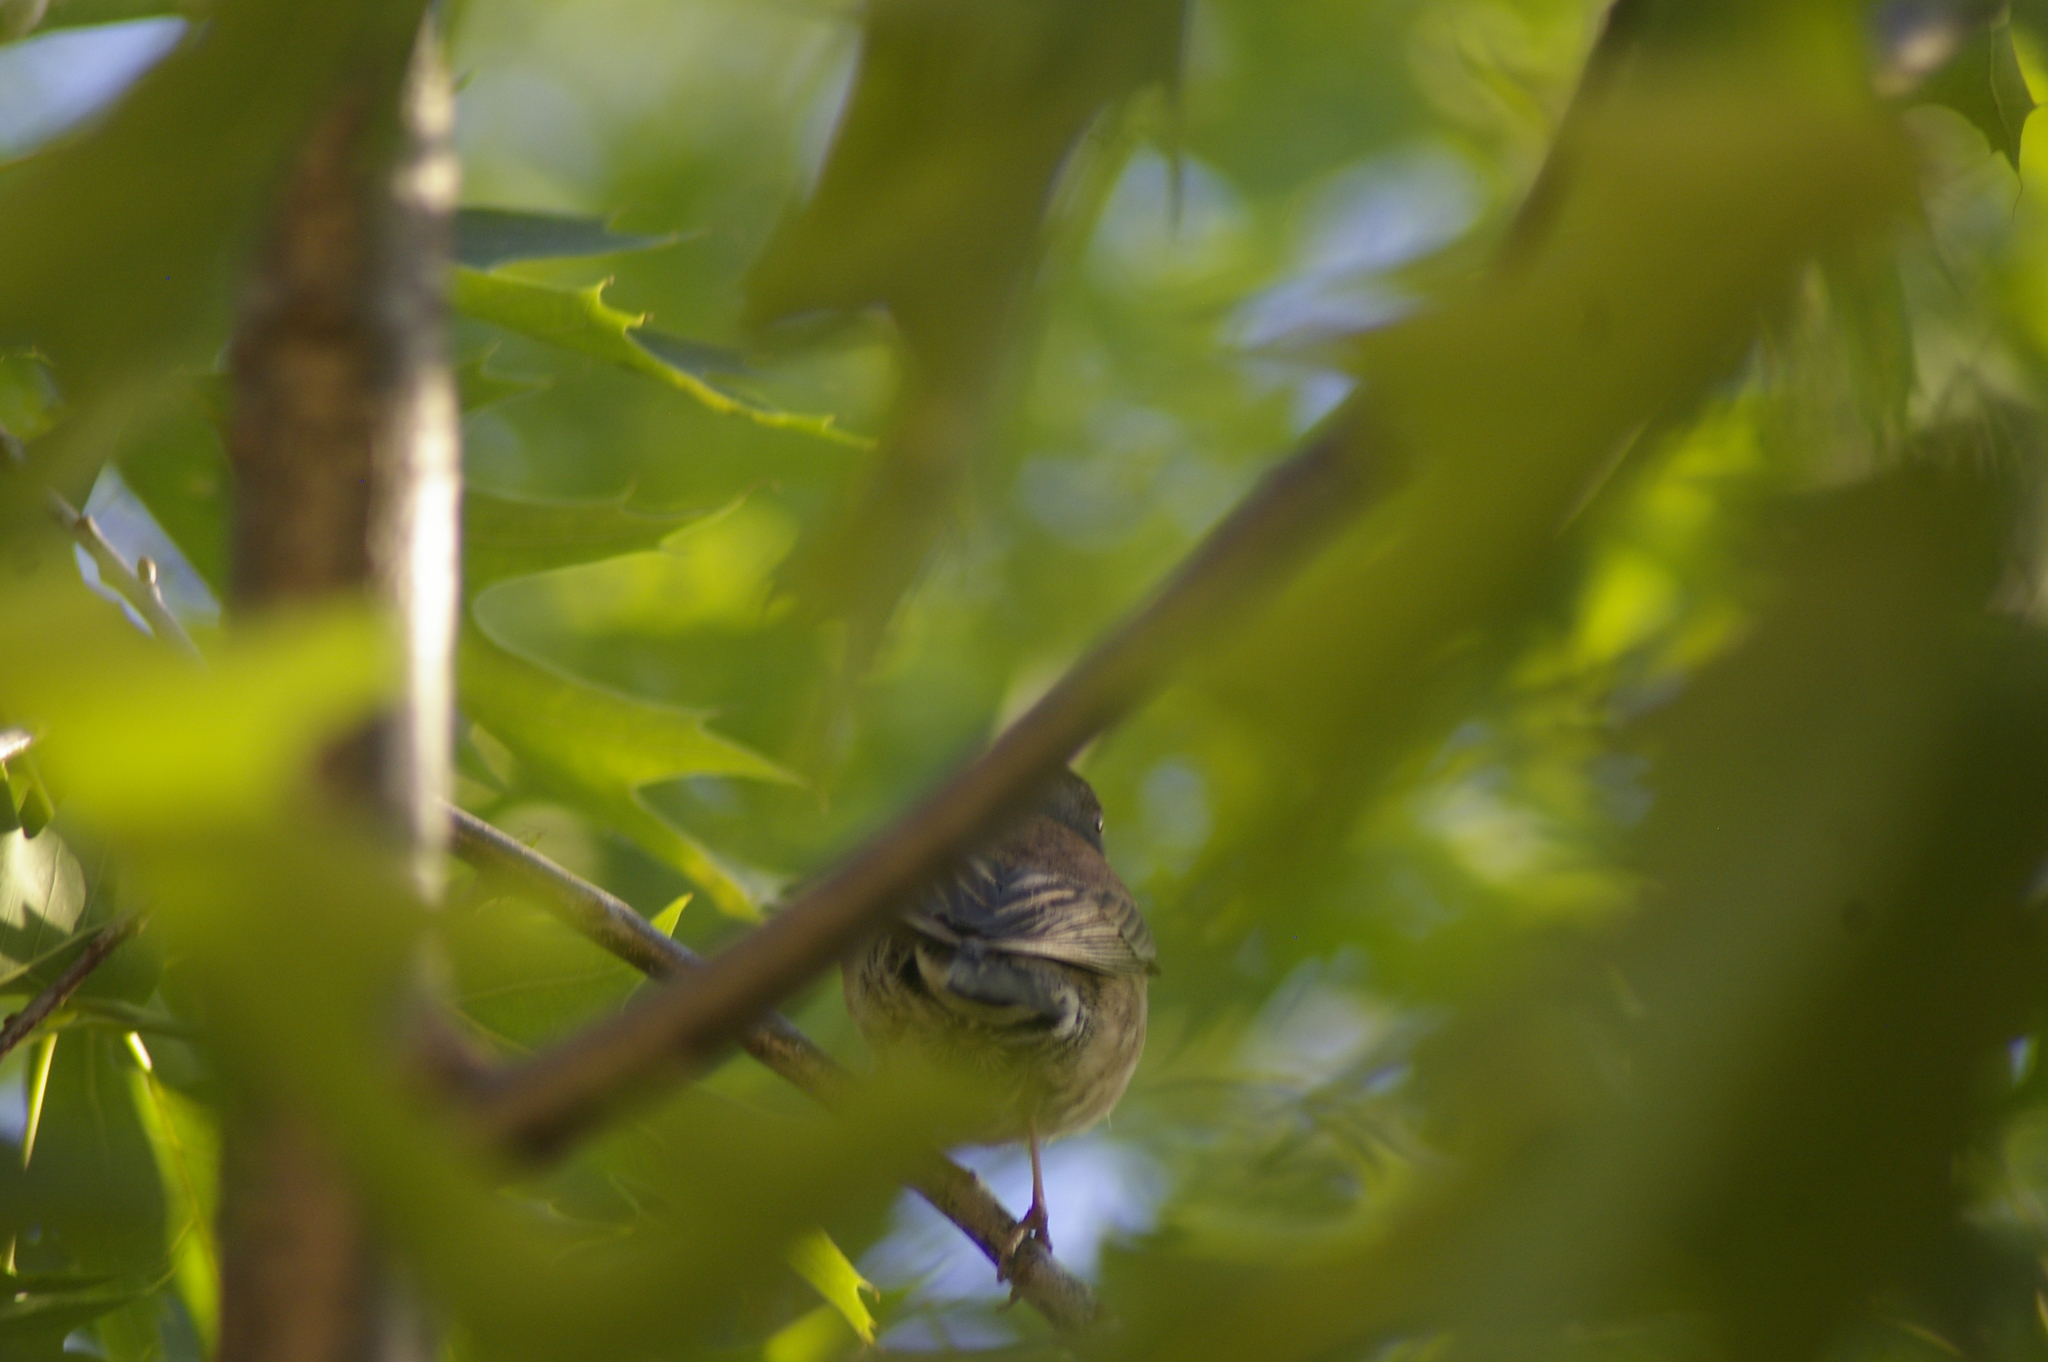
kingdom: Animalia
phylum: Chordata
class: Aves
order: Passeriformes
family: Passerellidae
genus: Junco
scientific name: Junco hyemalis
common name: Dark-eyed junco
